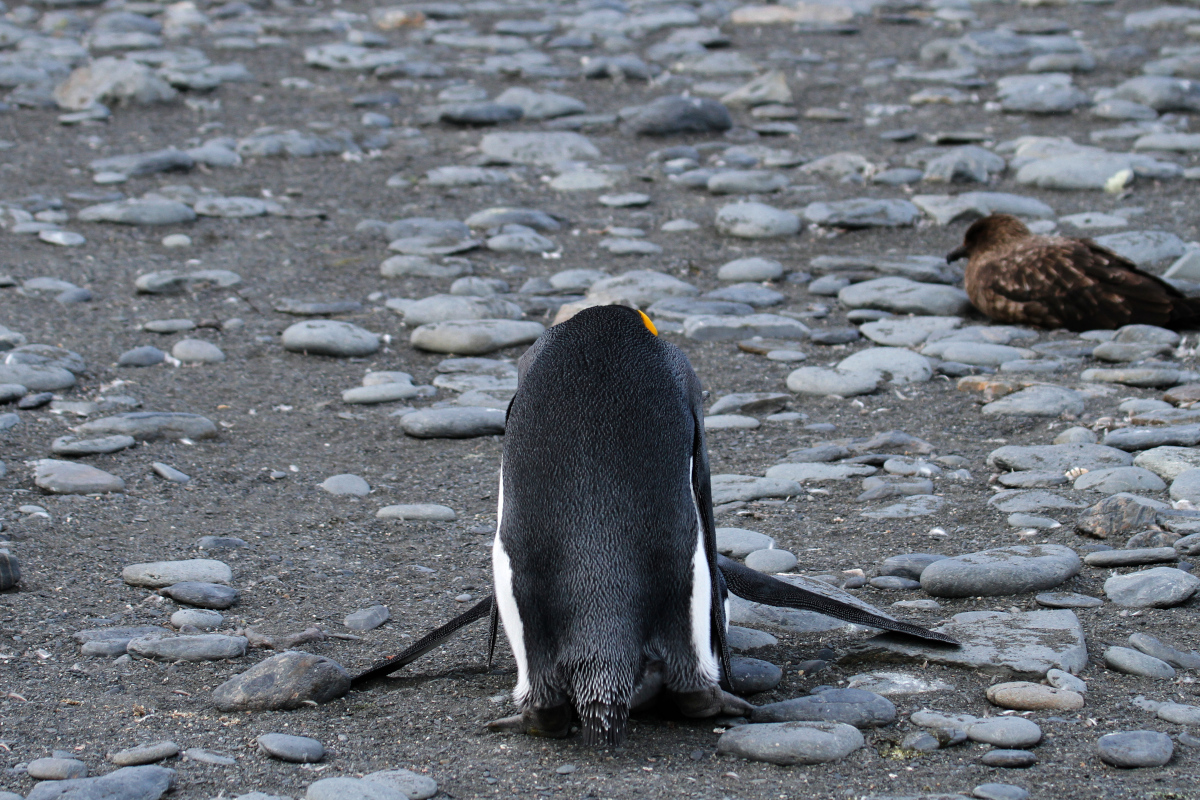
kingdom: Animalia
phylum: Chordata
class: Aves
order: Sphenisciformes
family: Spheniscidae
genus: Aptenodytes
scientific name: Aptenodytes patagonicus
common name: King penguin
